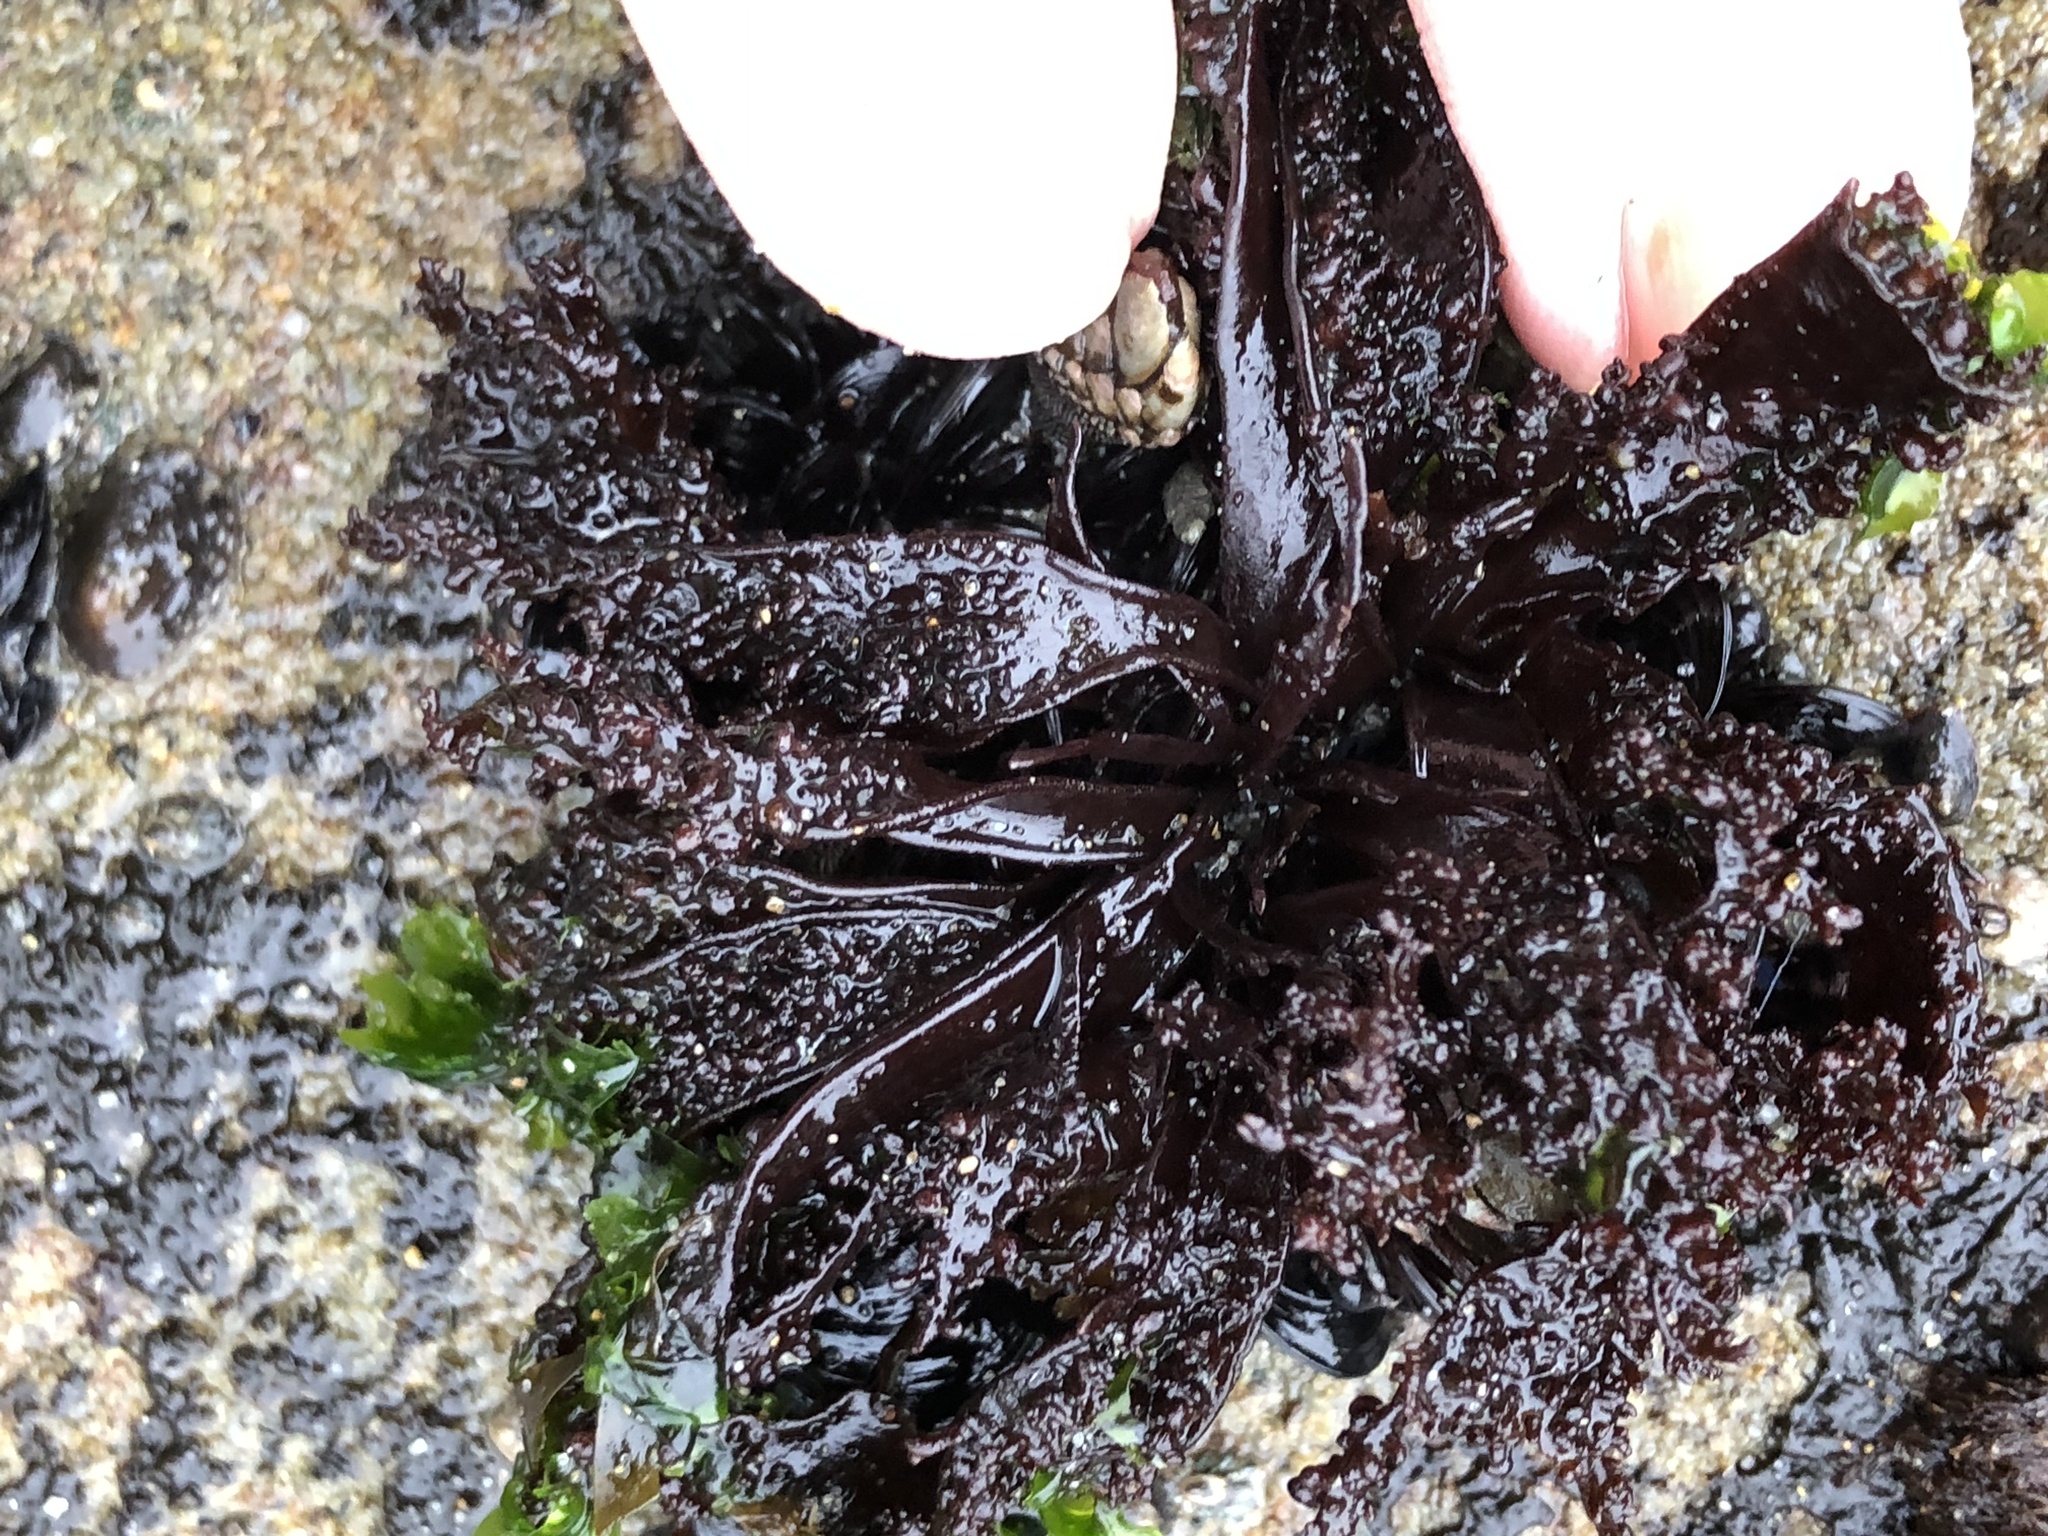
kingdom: Plantae
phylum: Rhodophyta
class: Florideophyceae
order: Gigartinales
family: Phyllophoraceae
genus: Mastocarpus
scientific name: Mastocarpus papillatus
